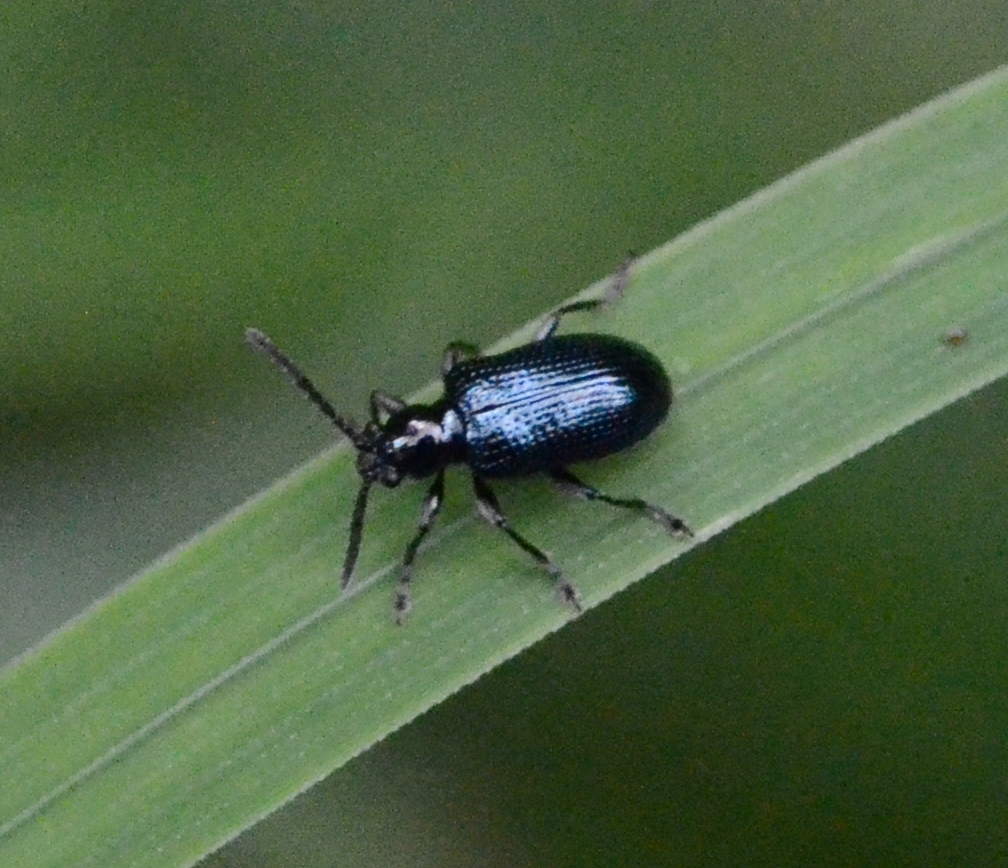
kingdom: Animalia
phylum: Arthropoda
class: Insecta
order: Coleoptera
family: Chrysomelidae
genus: Oulema
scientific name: Oulema gallaeciana
